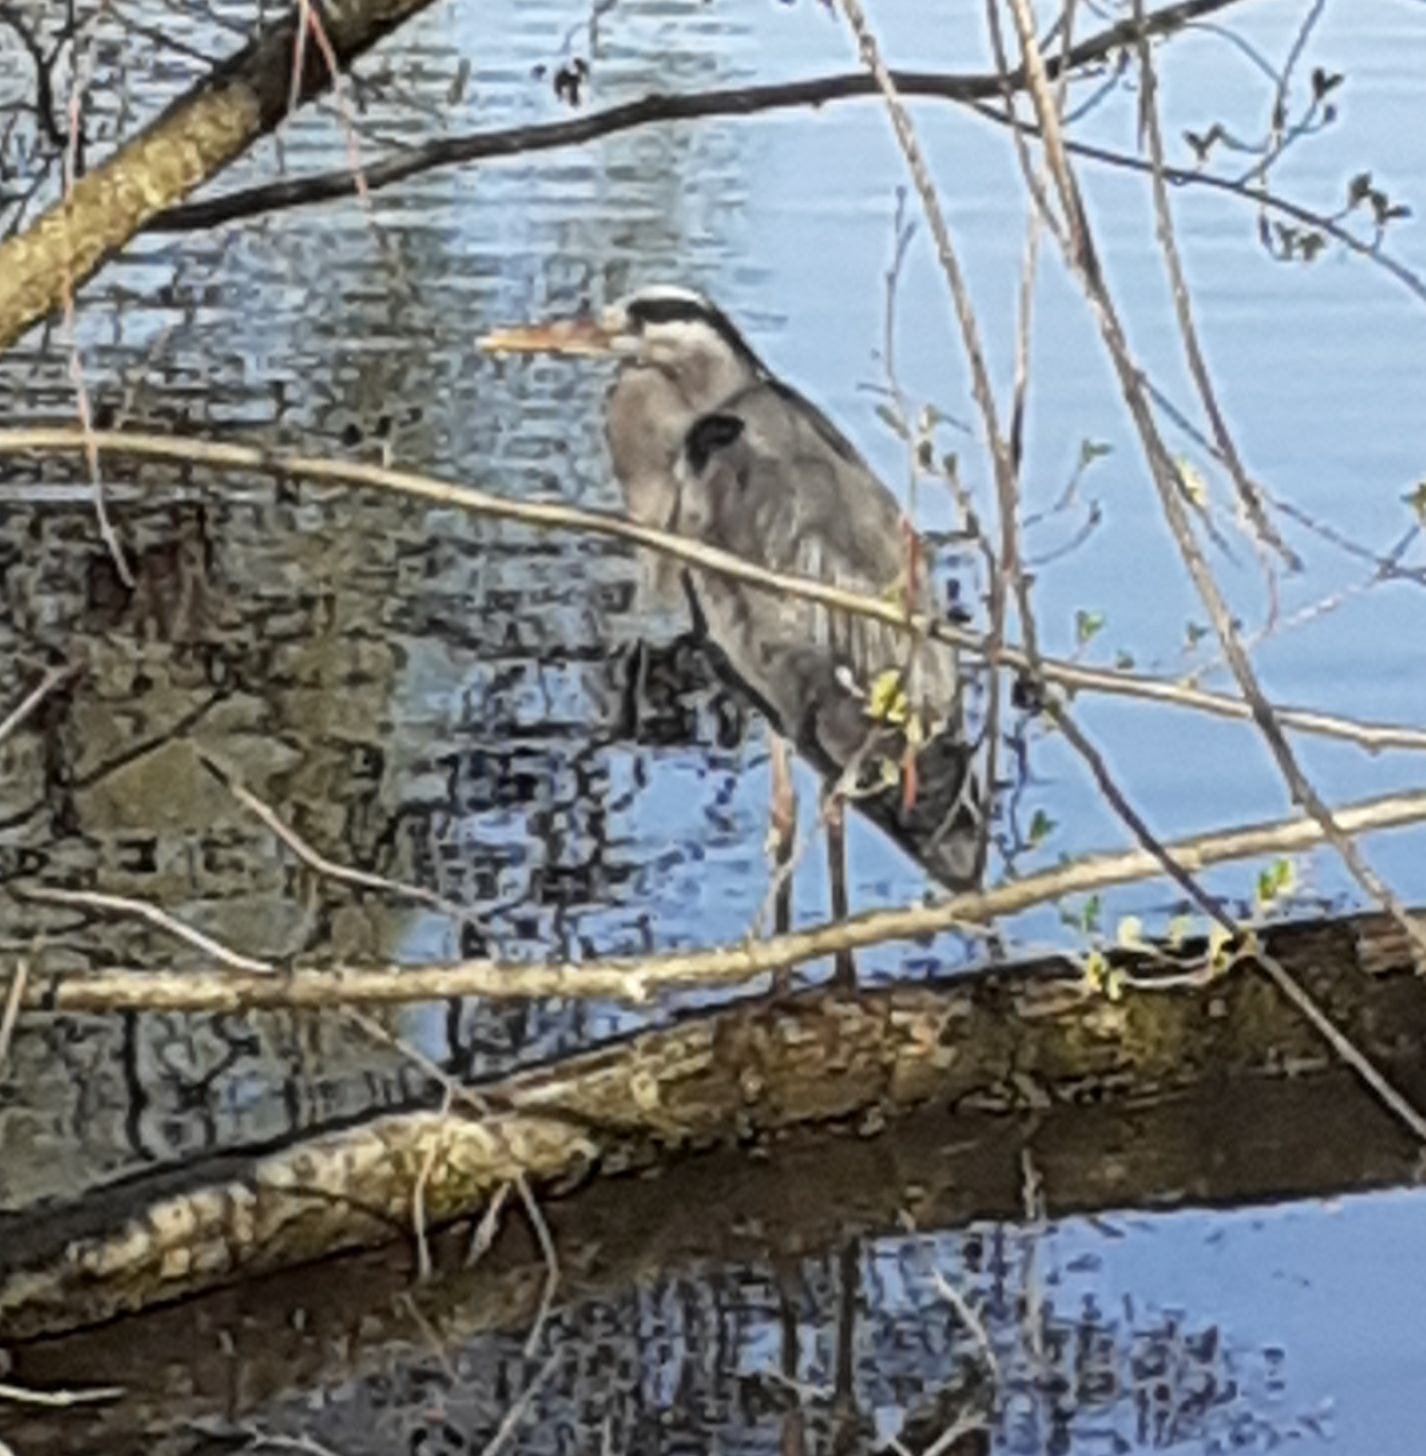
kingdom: Animalia
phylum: Chordata
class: Aves
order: Pelecaniformes
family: Ardeidae
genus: Ardea
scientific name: Ardea cinerea
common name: Grey heron
